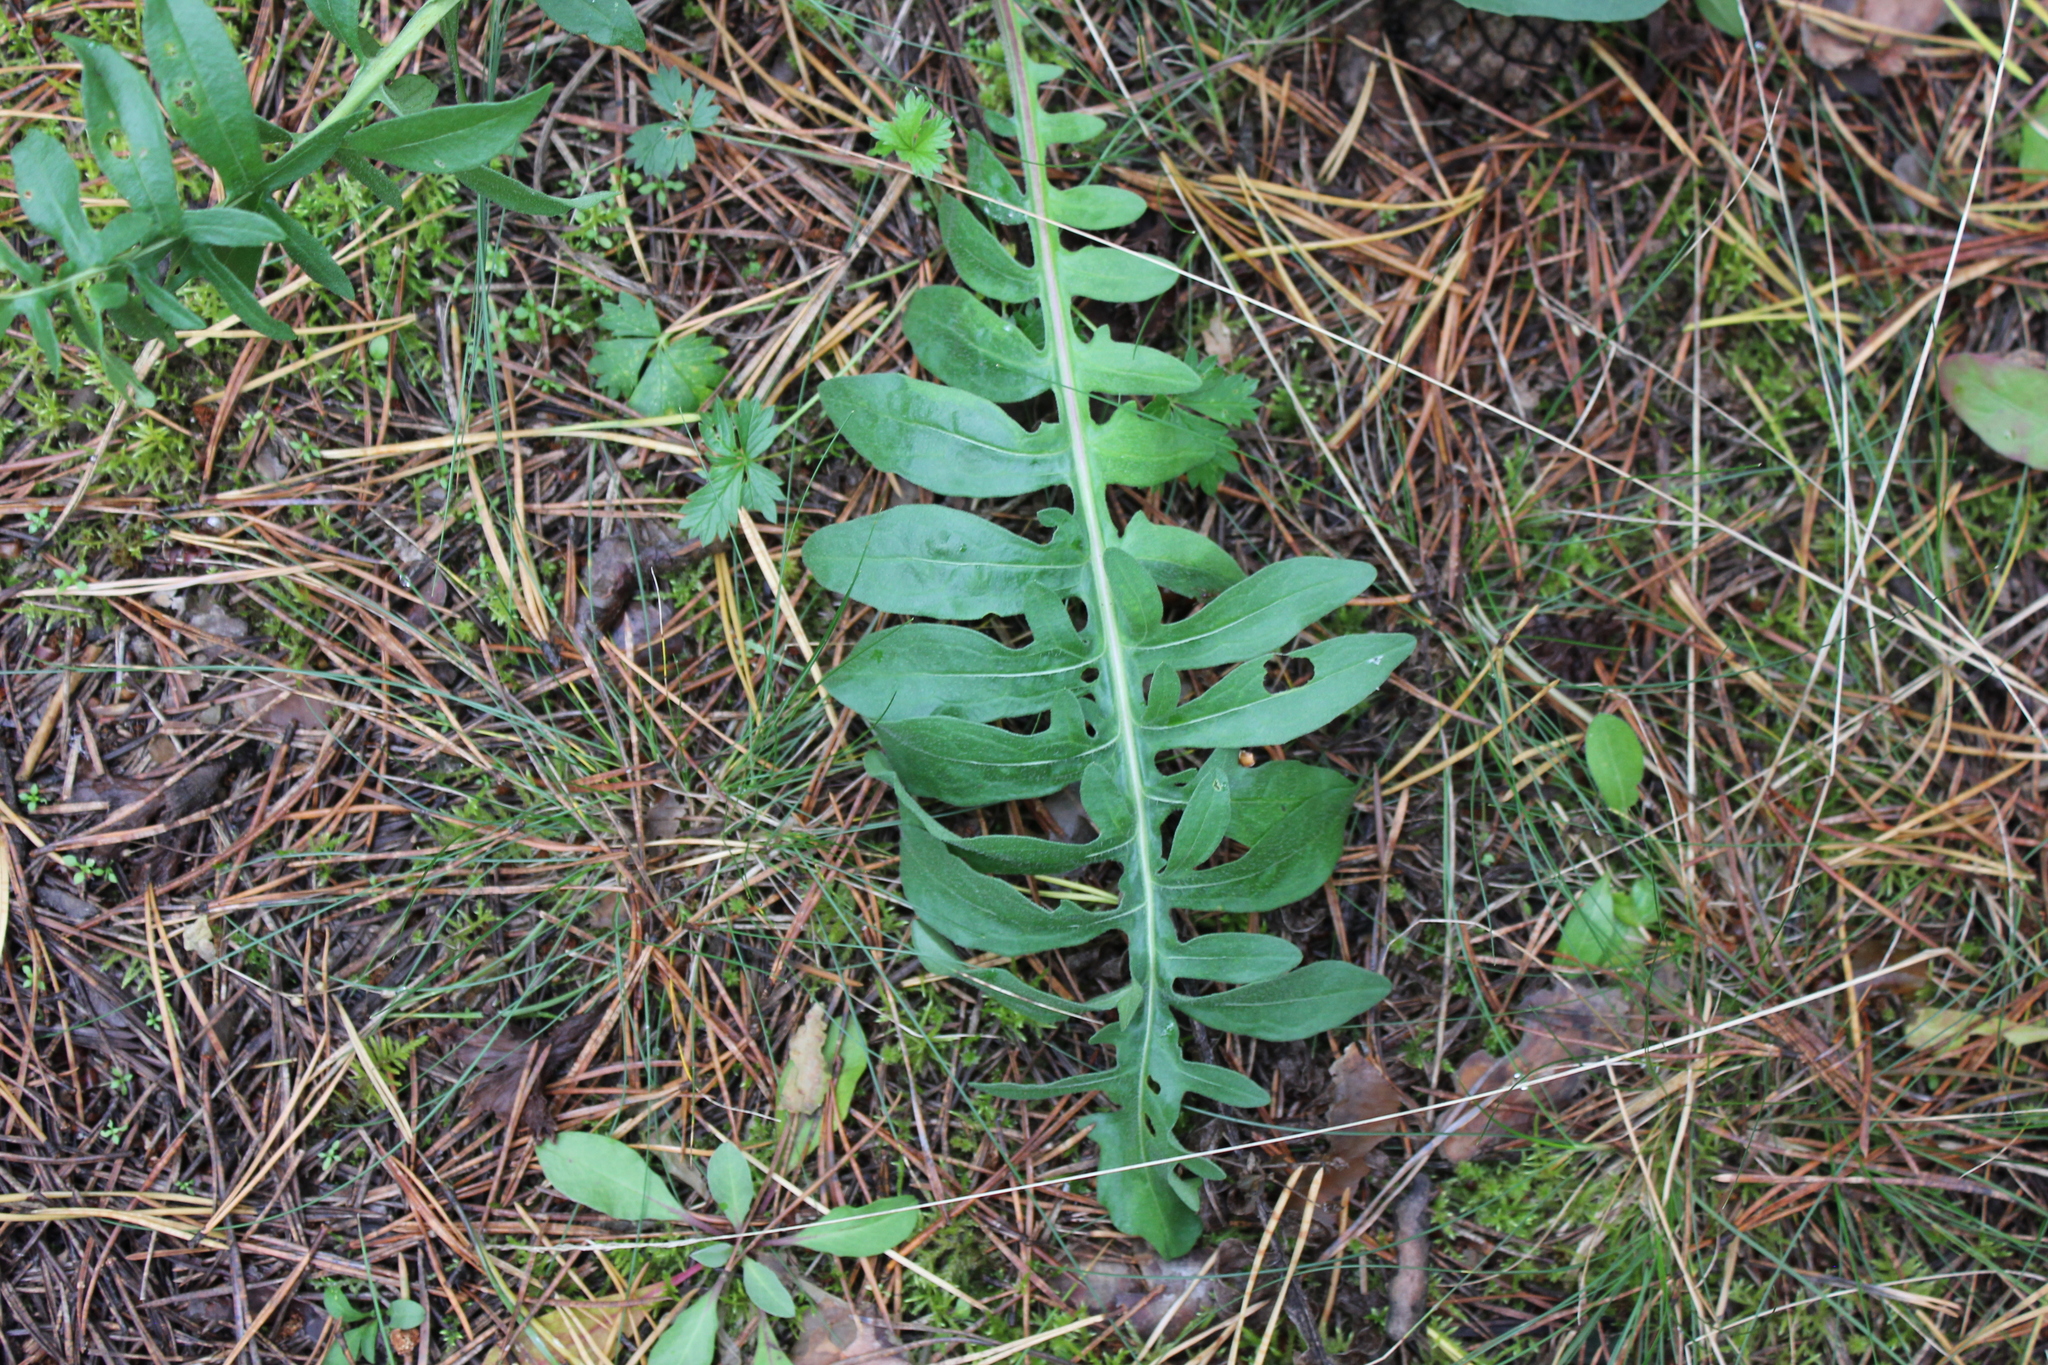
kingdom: Plantae
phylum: Tracheophyta
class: Magnoliopsida
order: Asterales
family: Asteraceae
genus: Centaurea
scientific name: Centaurea scabiosa
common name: Greater knapweed
